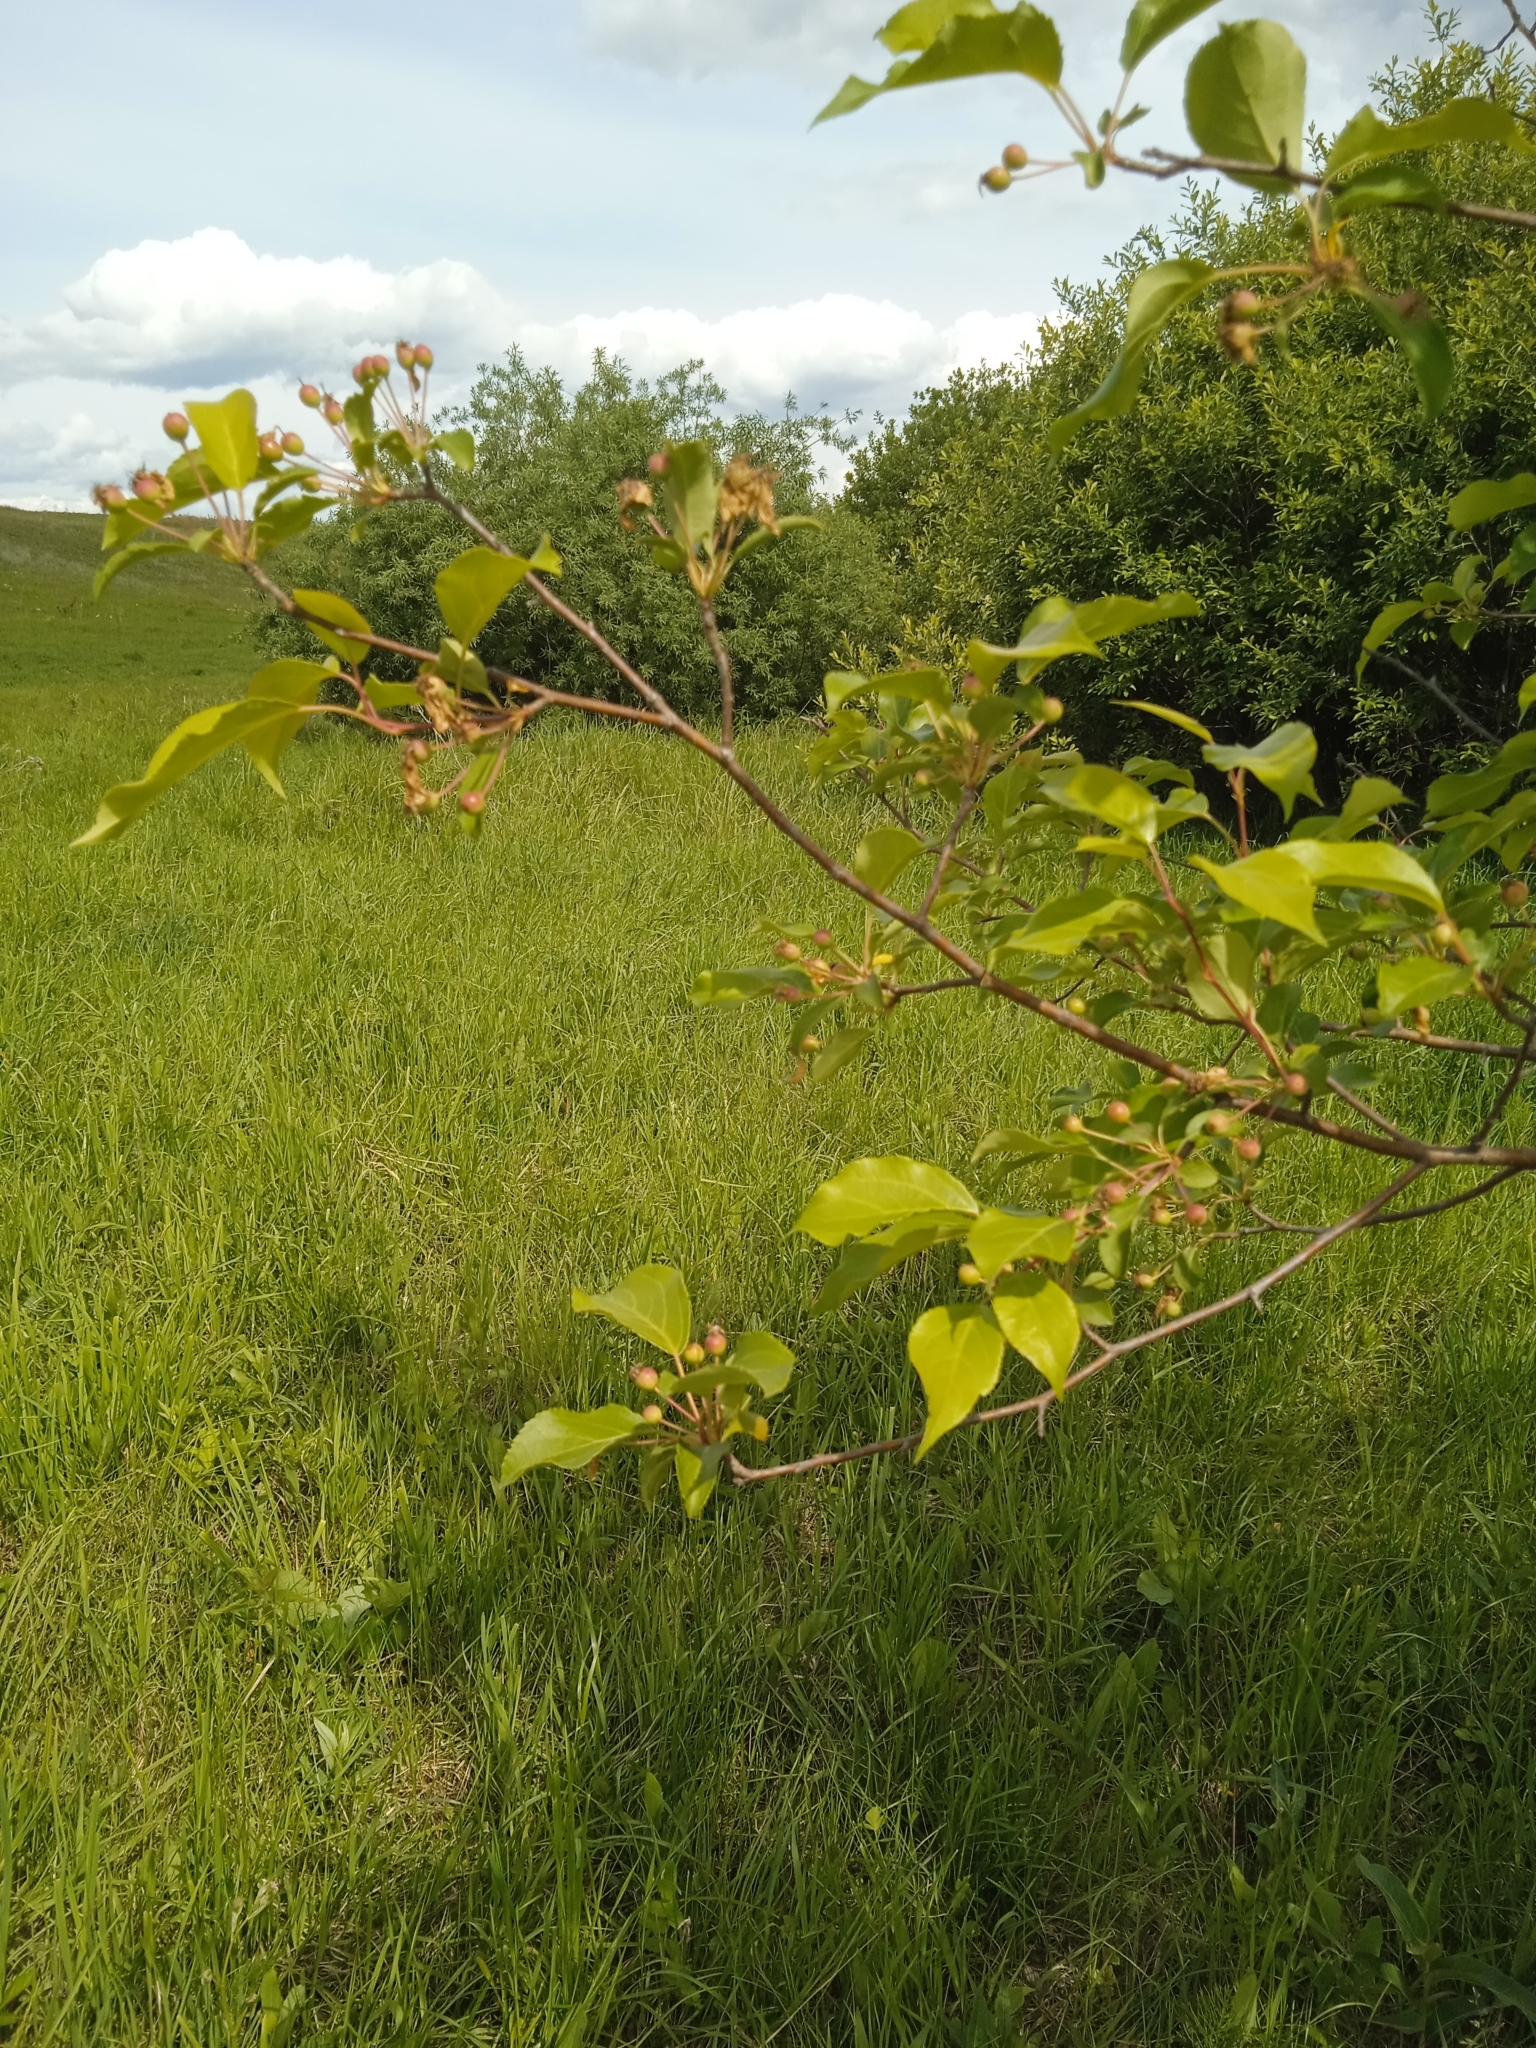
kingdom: Plantae
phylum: Tracheophyta
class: Magnoliopsida
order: Rosales
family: Rosaceae
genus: Malus
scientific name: Malus baccata
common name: Siberian crab
